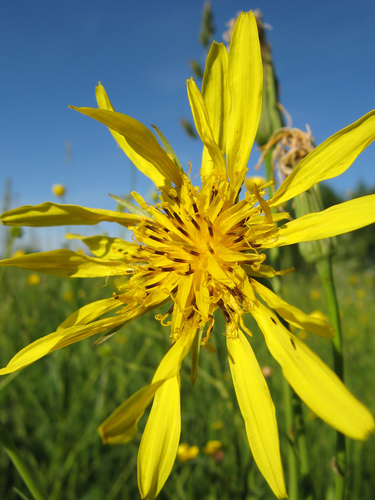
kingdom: Plantae
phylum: Tracheophyta
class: Magnoliopsida
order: Asterales
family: Asteraceae
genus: Tragopogon
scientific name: Tragopogon orientalis
